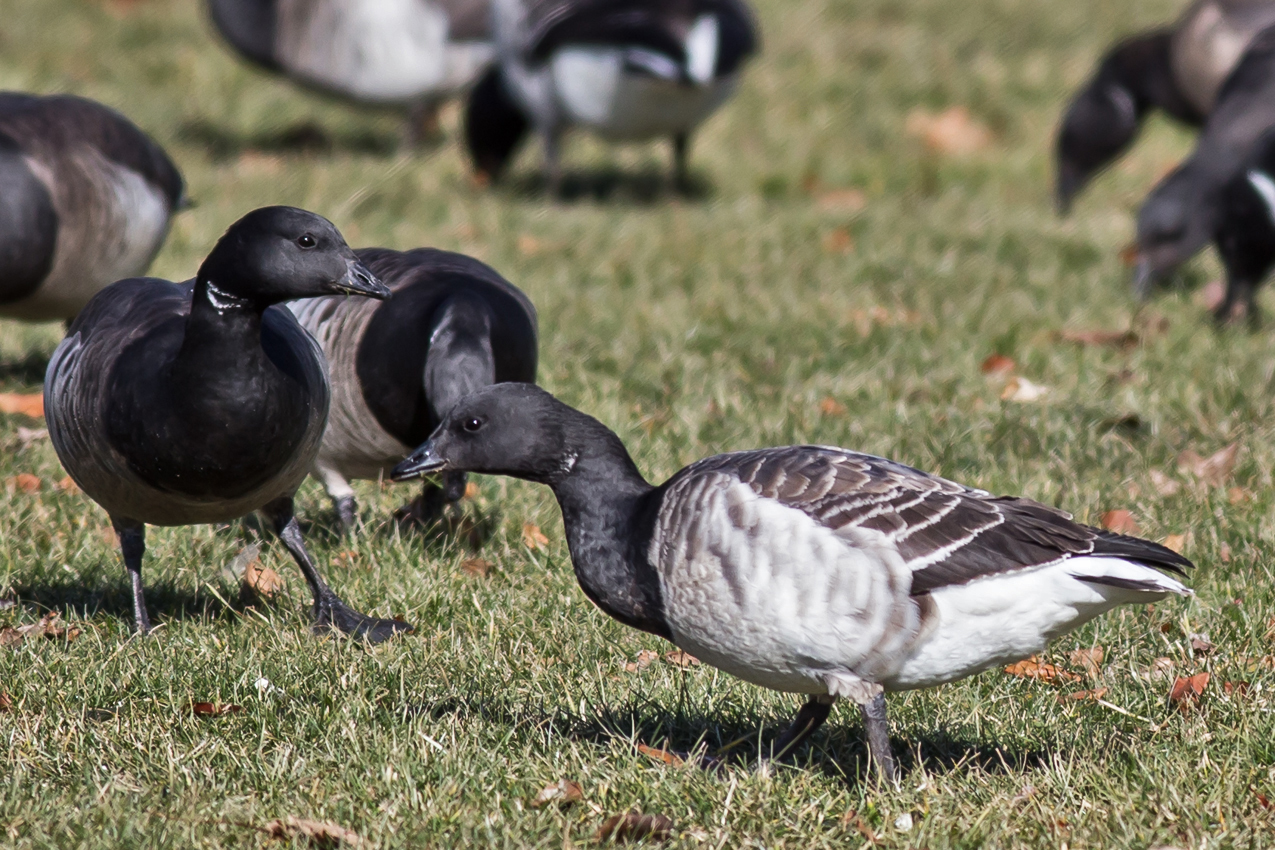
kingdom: Animalia
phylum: Chordata
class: Aves
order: Anseriformes
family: Anatidae
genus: Branta
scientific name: Branta bernicla
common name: Brant goose
